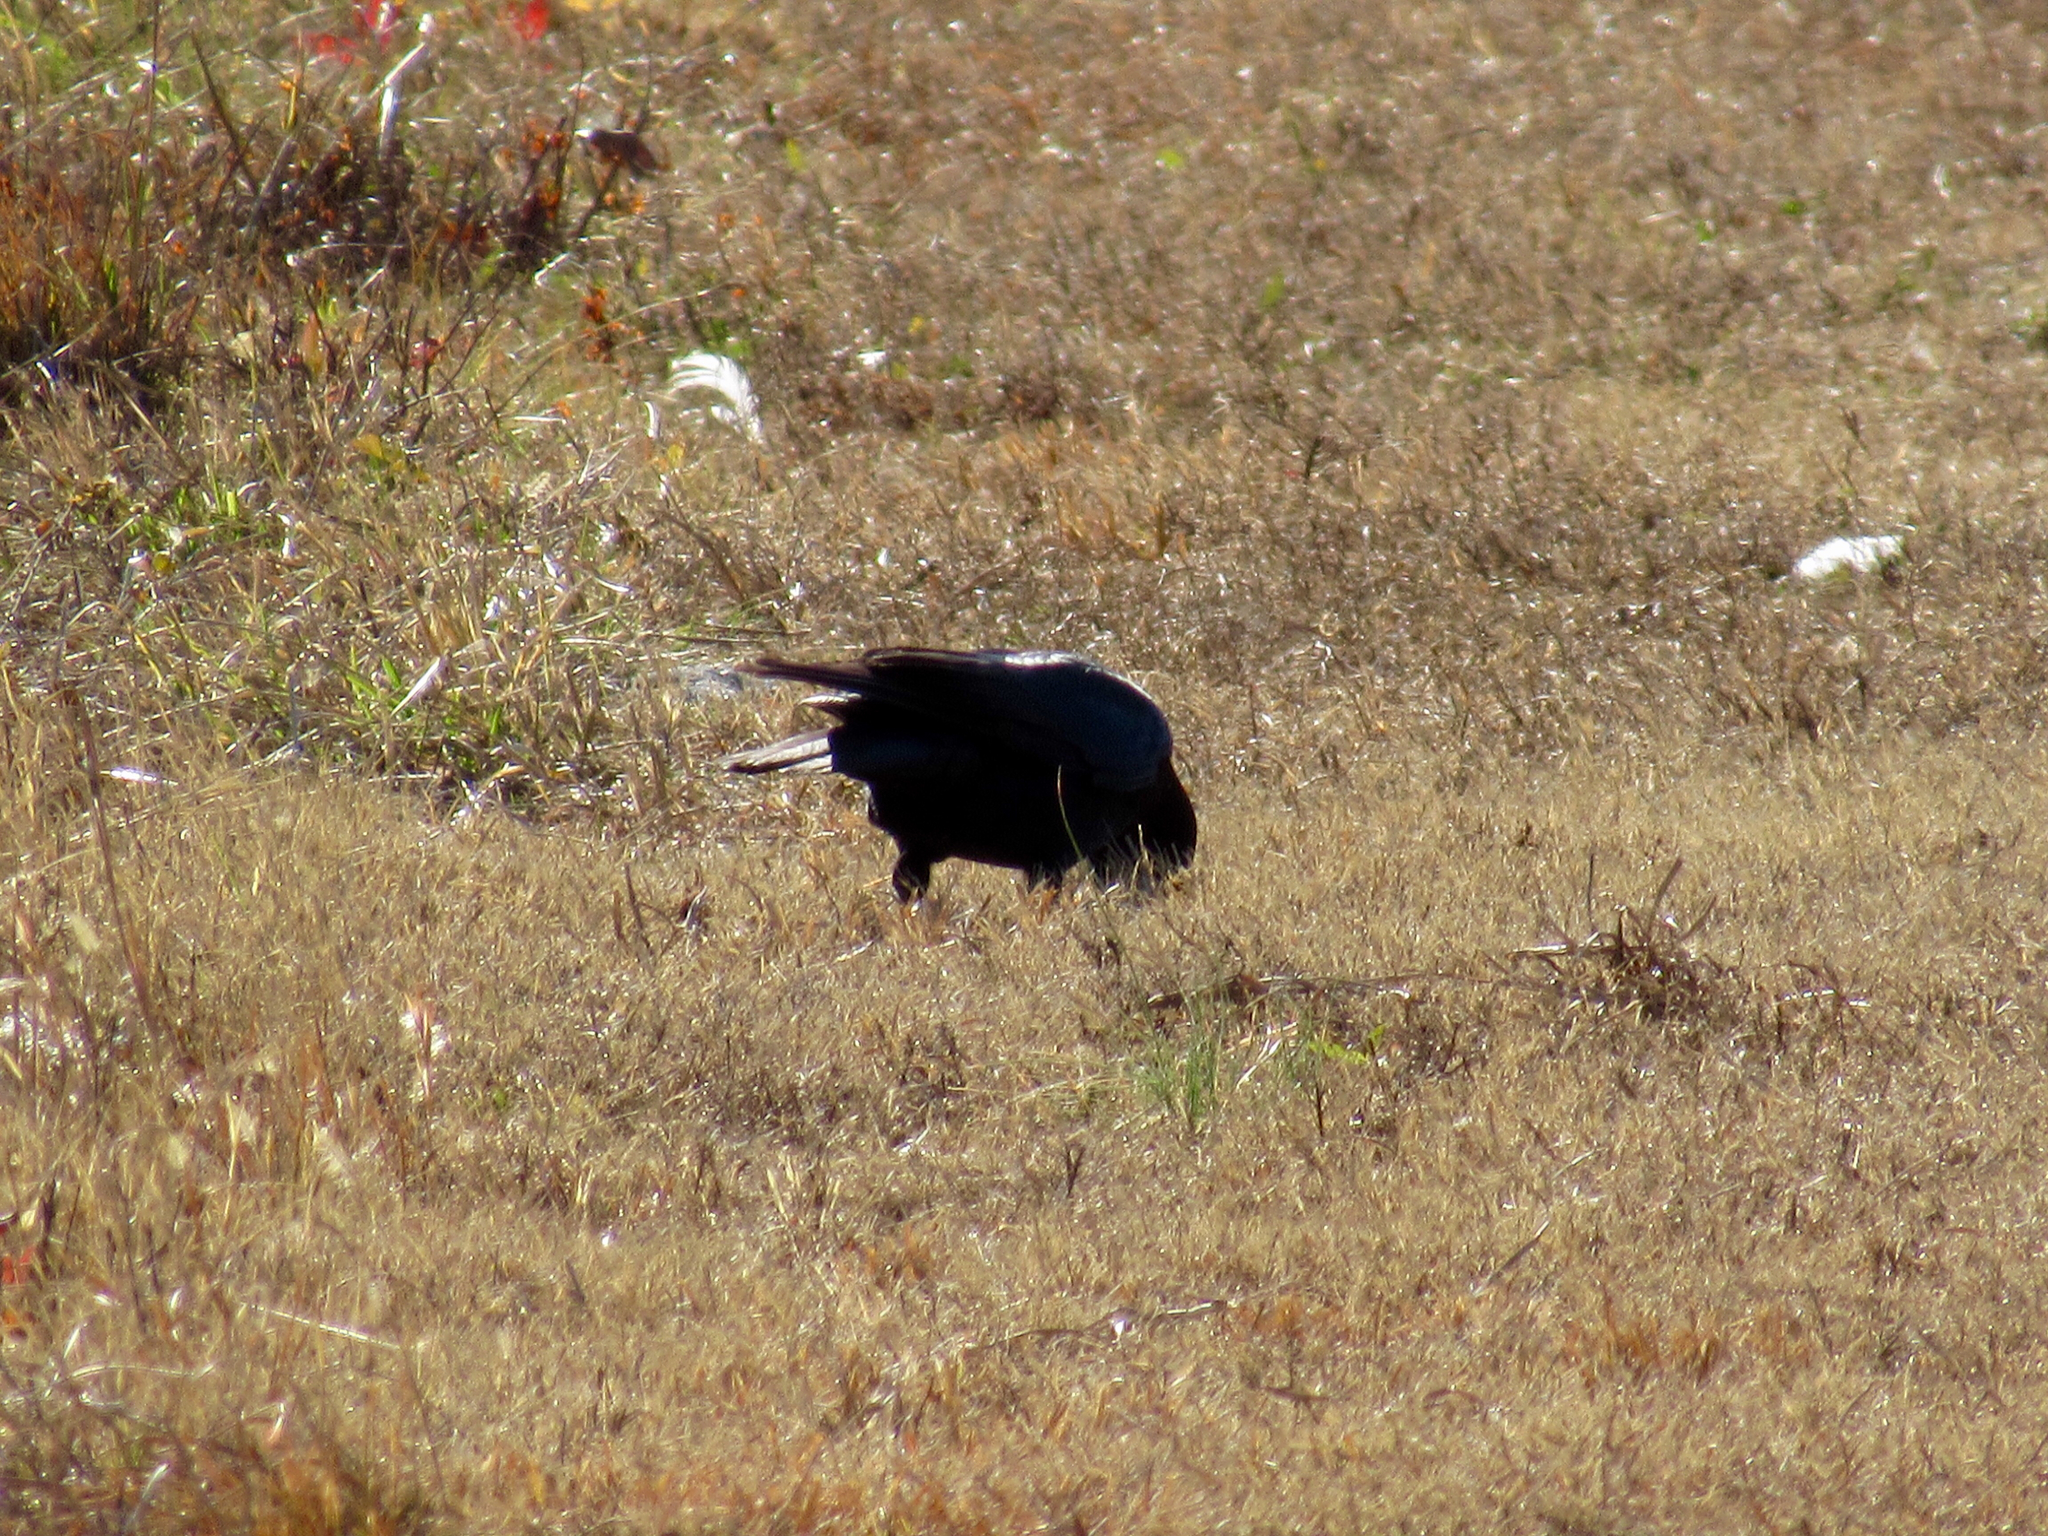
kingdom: Animalia
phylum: Chordata
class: Aves
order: Passeriformes
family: Corvidae
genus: Corvus
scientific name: Corvus brachyrhynchos
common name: American crow
